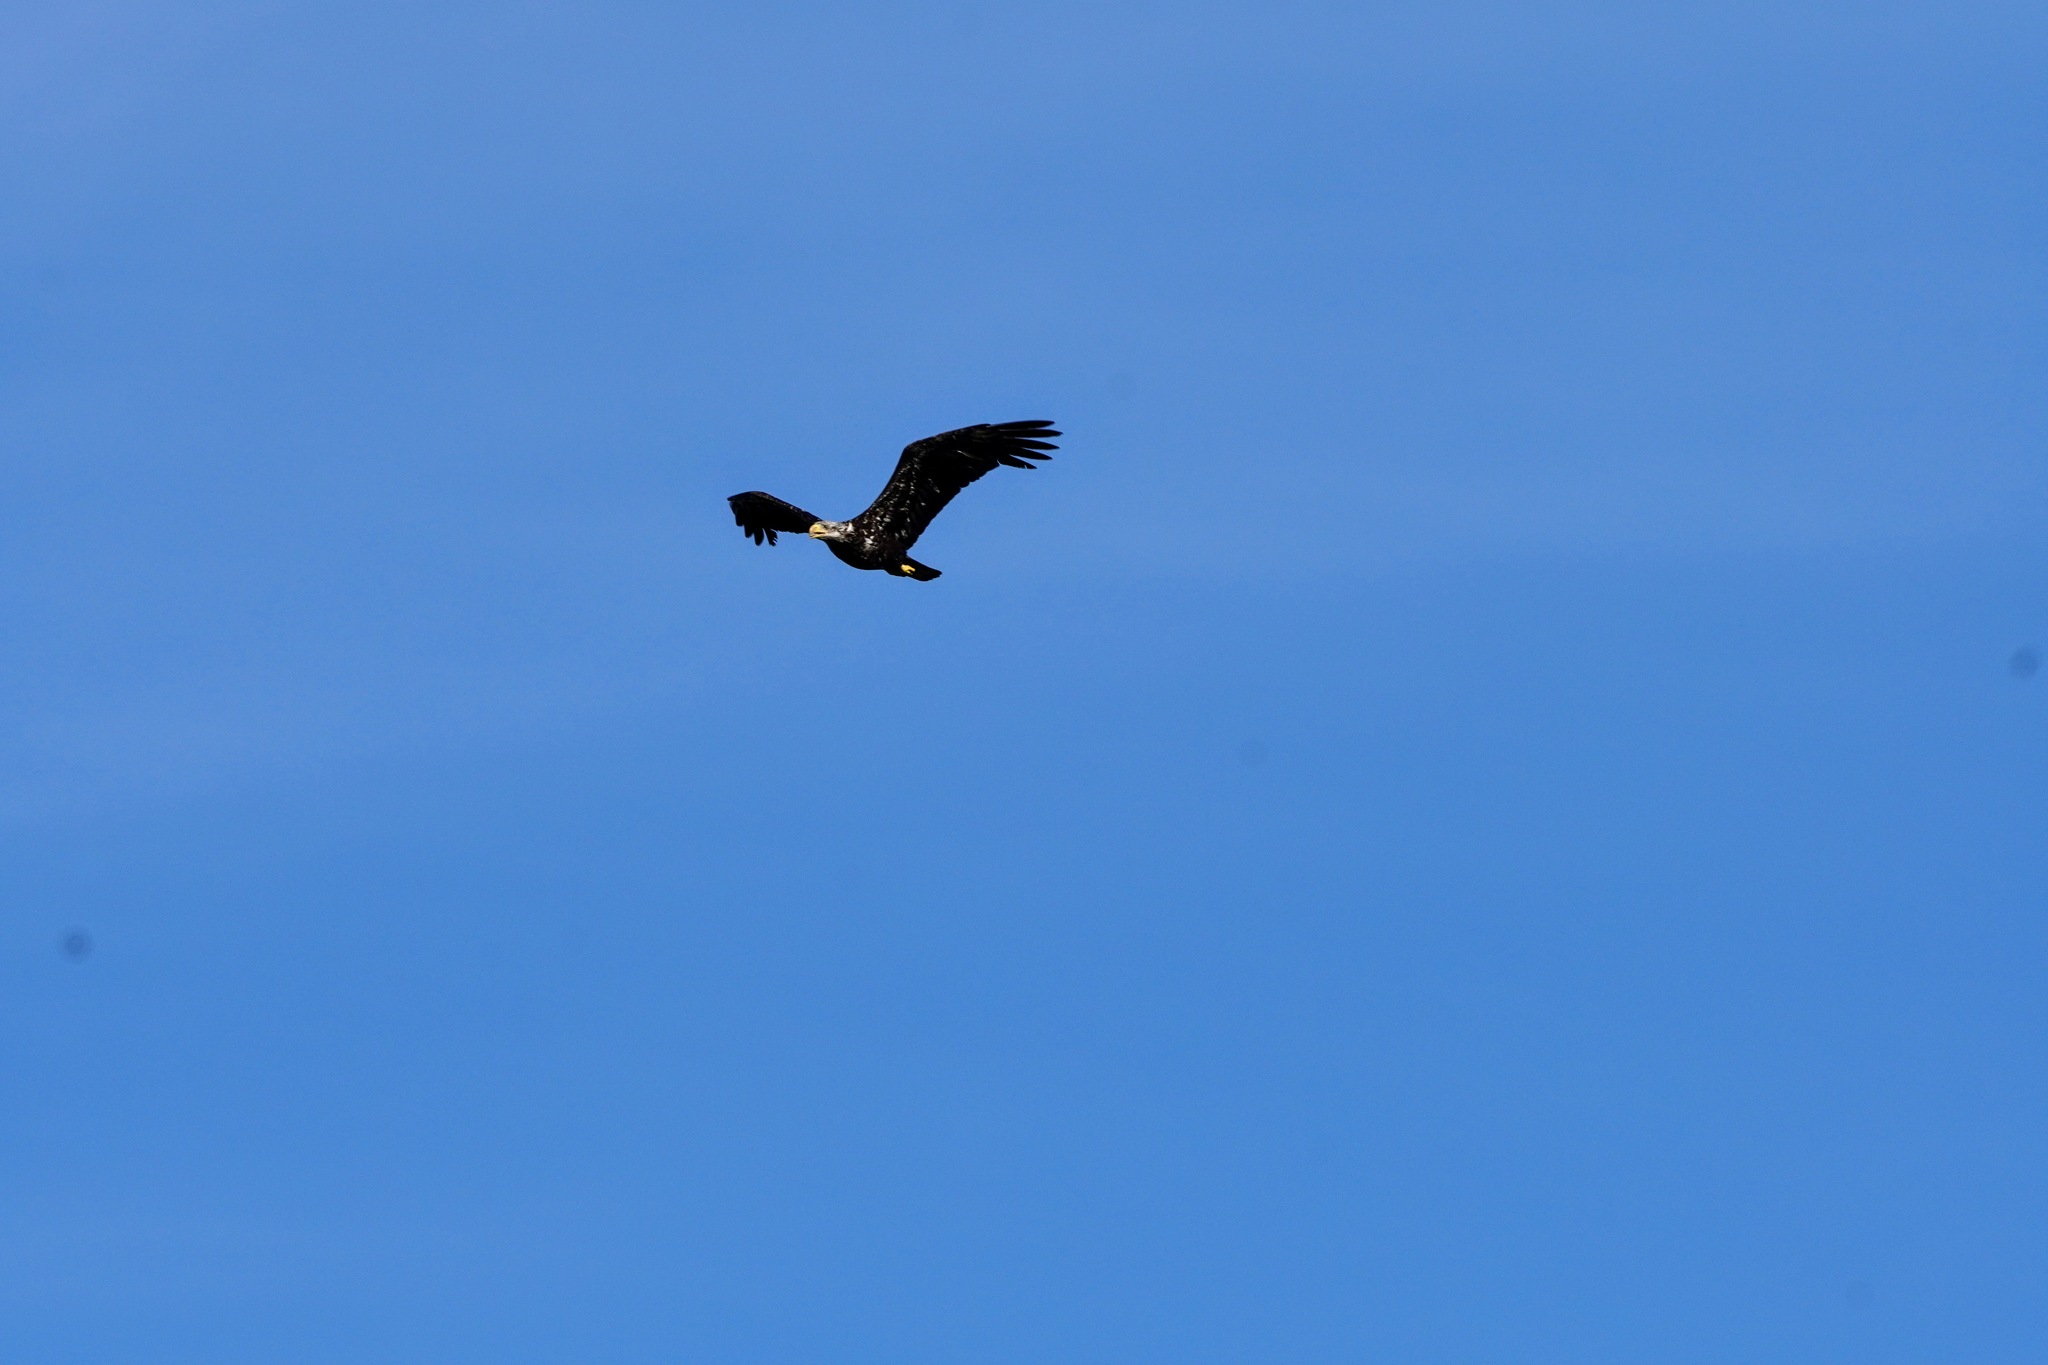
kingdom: Animalia
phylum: Chordata
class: Aves
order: Accipitriformes
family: Accipitridae
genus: Haliaeetus
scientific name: Haliaeetus leucocephalus
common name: Bald eagle
